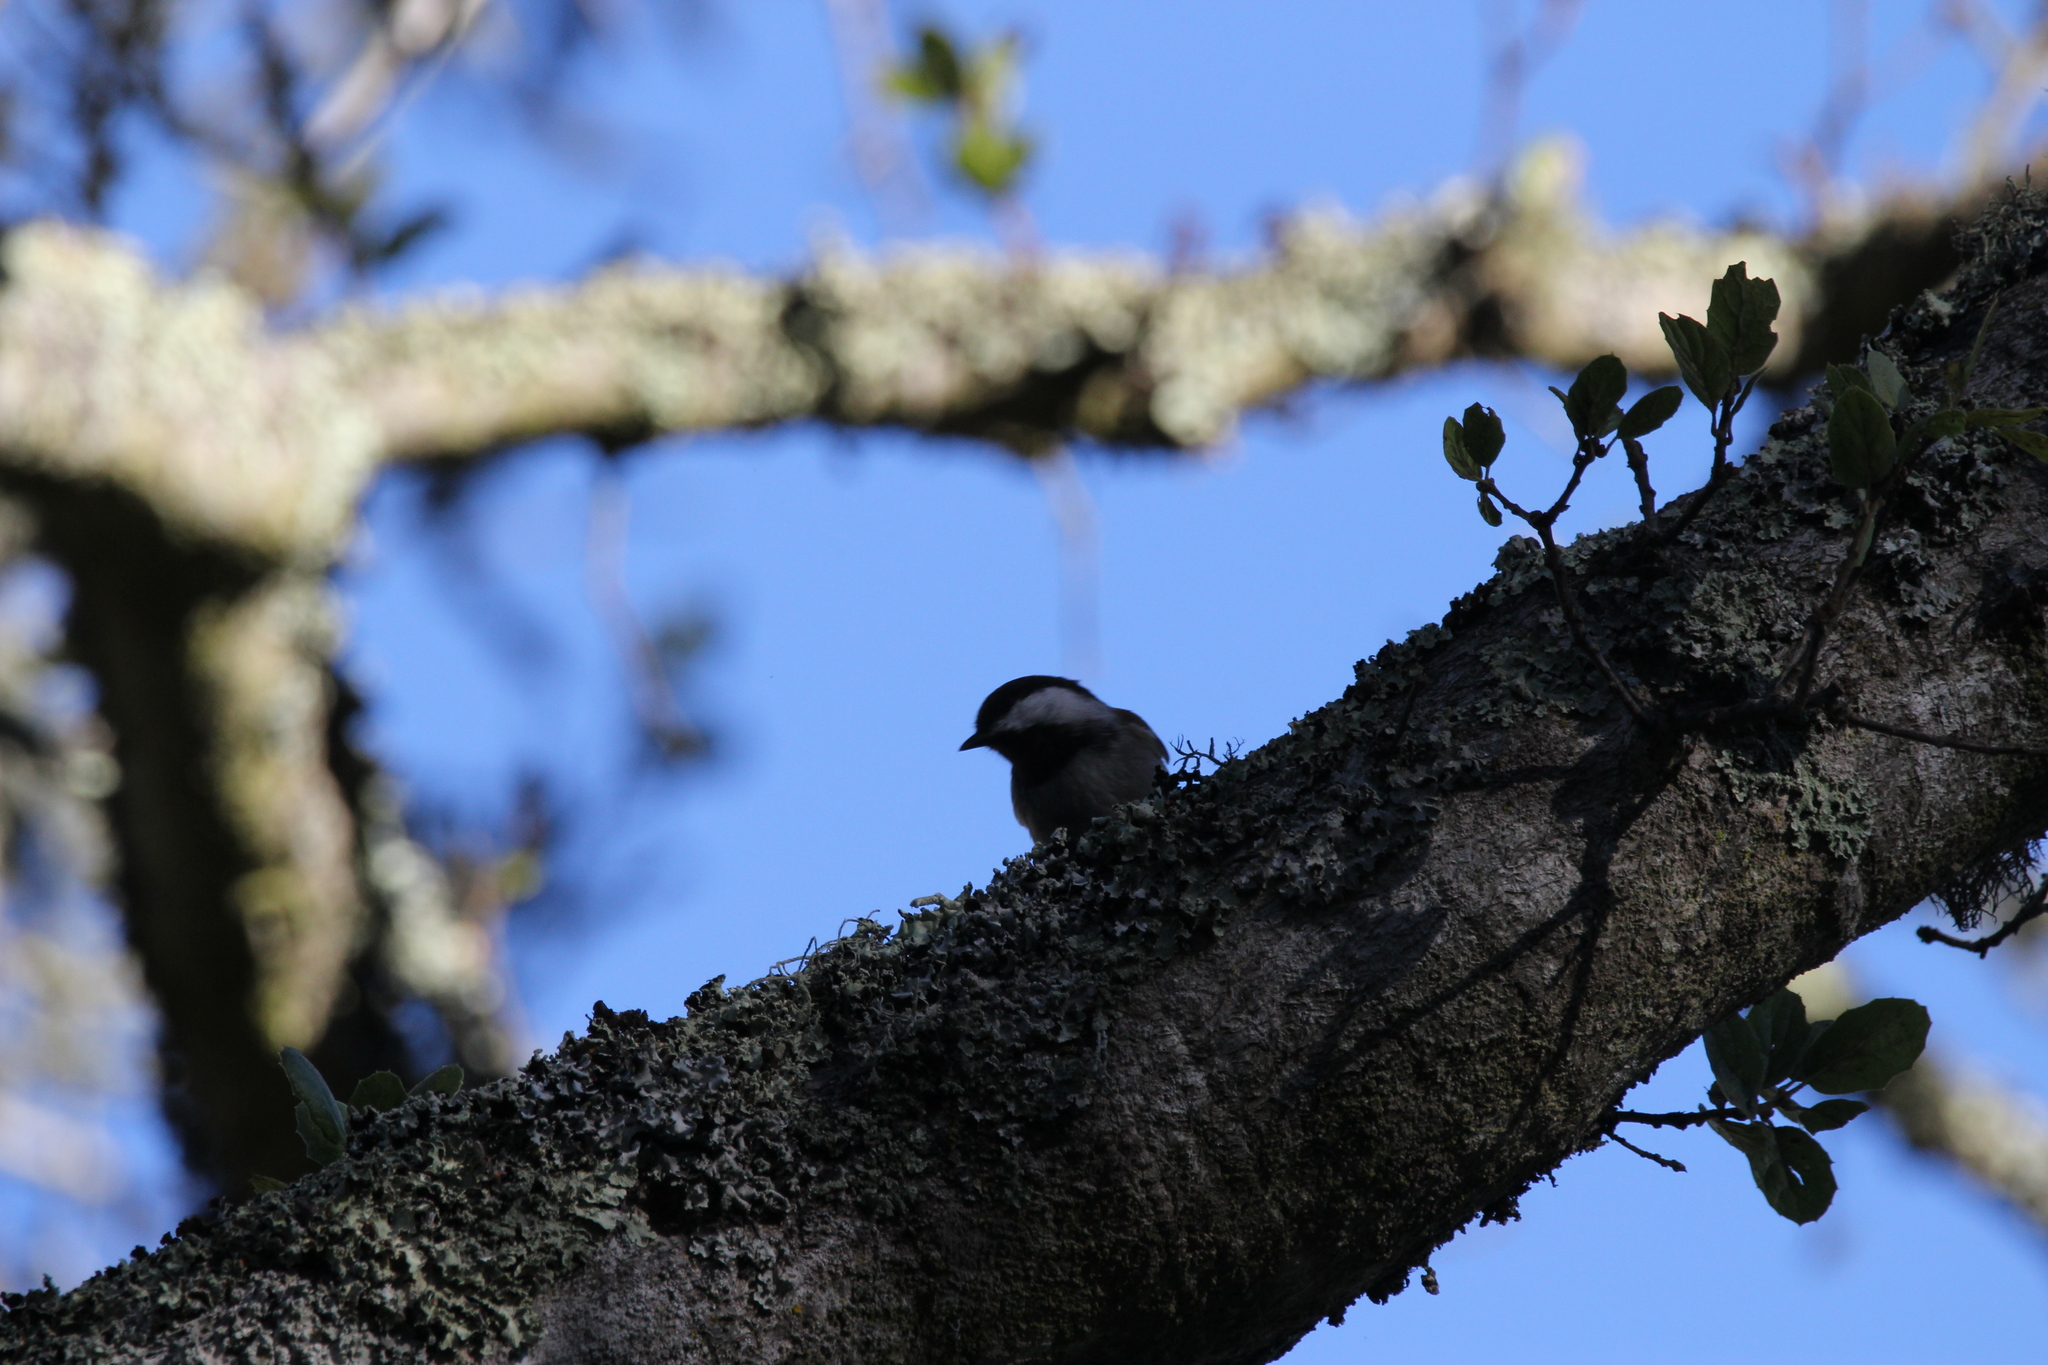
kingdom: Animalia
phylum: Chordata
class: Aves
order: Passeriformes
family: Paridae
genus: Poecile
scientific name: Poecile rufescens
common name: Chestnut-backed chickadee
